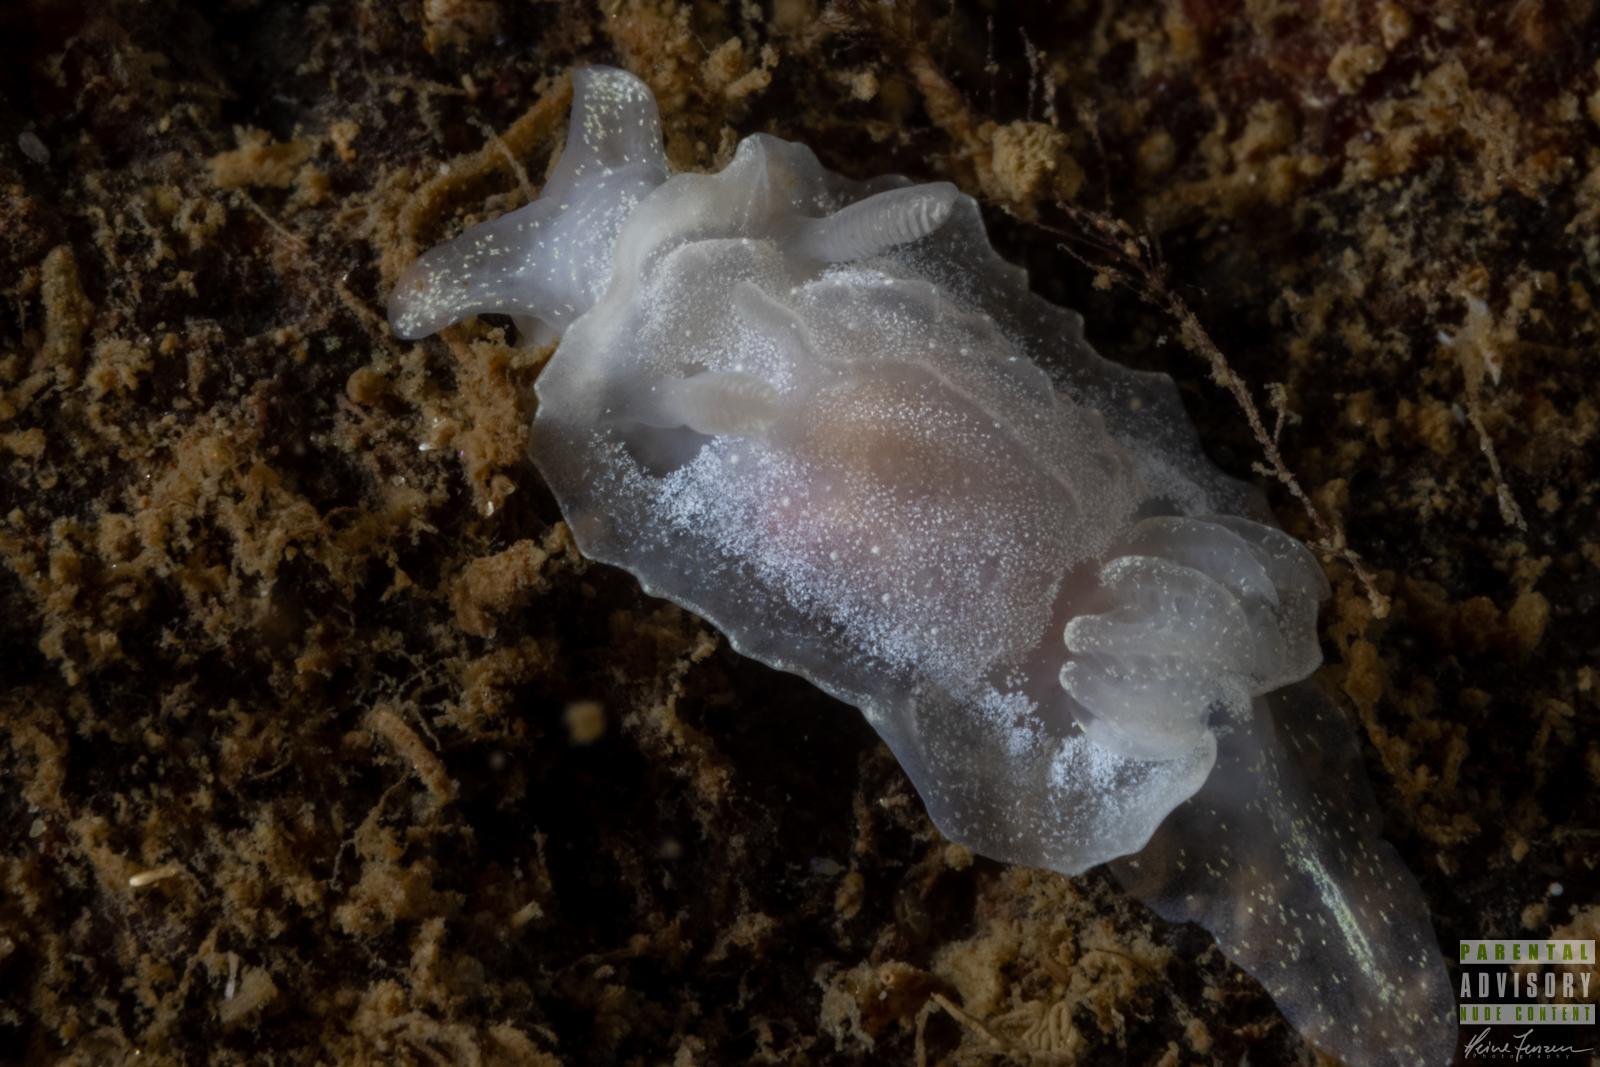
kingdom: Animalia
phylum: Mollusca
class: Gastropoda
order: Nudibranchia
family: Goniodorididae
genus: Okenia
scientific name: Okenia
